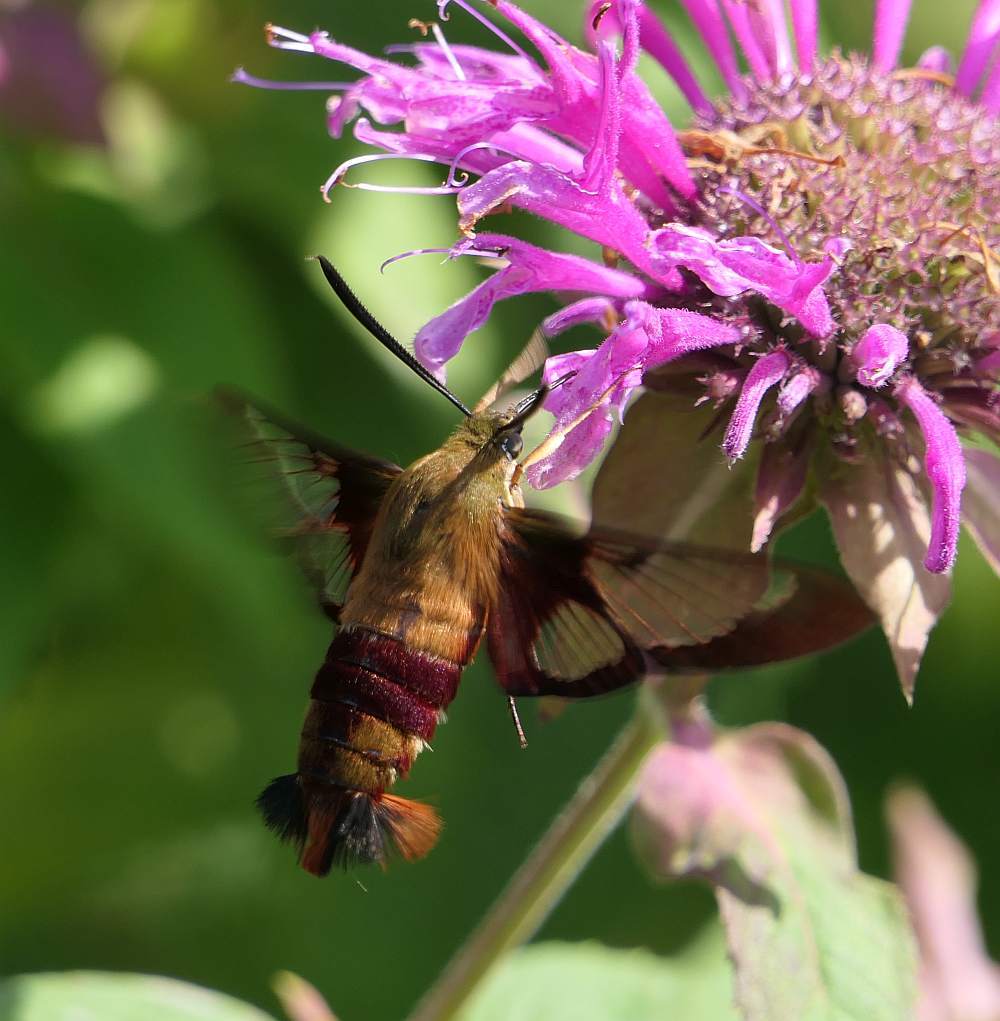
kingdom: Animalia
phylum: Arthropoda
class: Insecta
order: Lepidoptera
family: Sphingidae
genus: Hemaris
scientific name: Hemaris thysbe
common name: Common clear-wing
